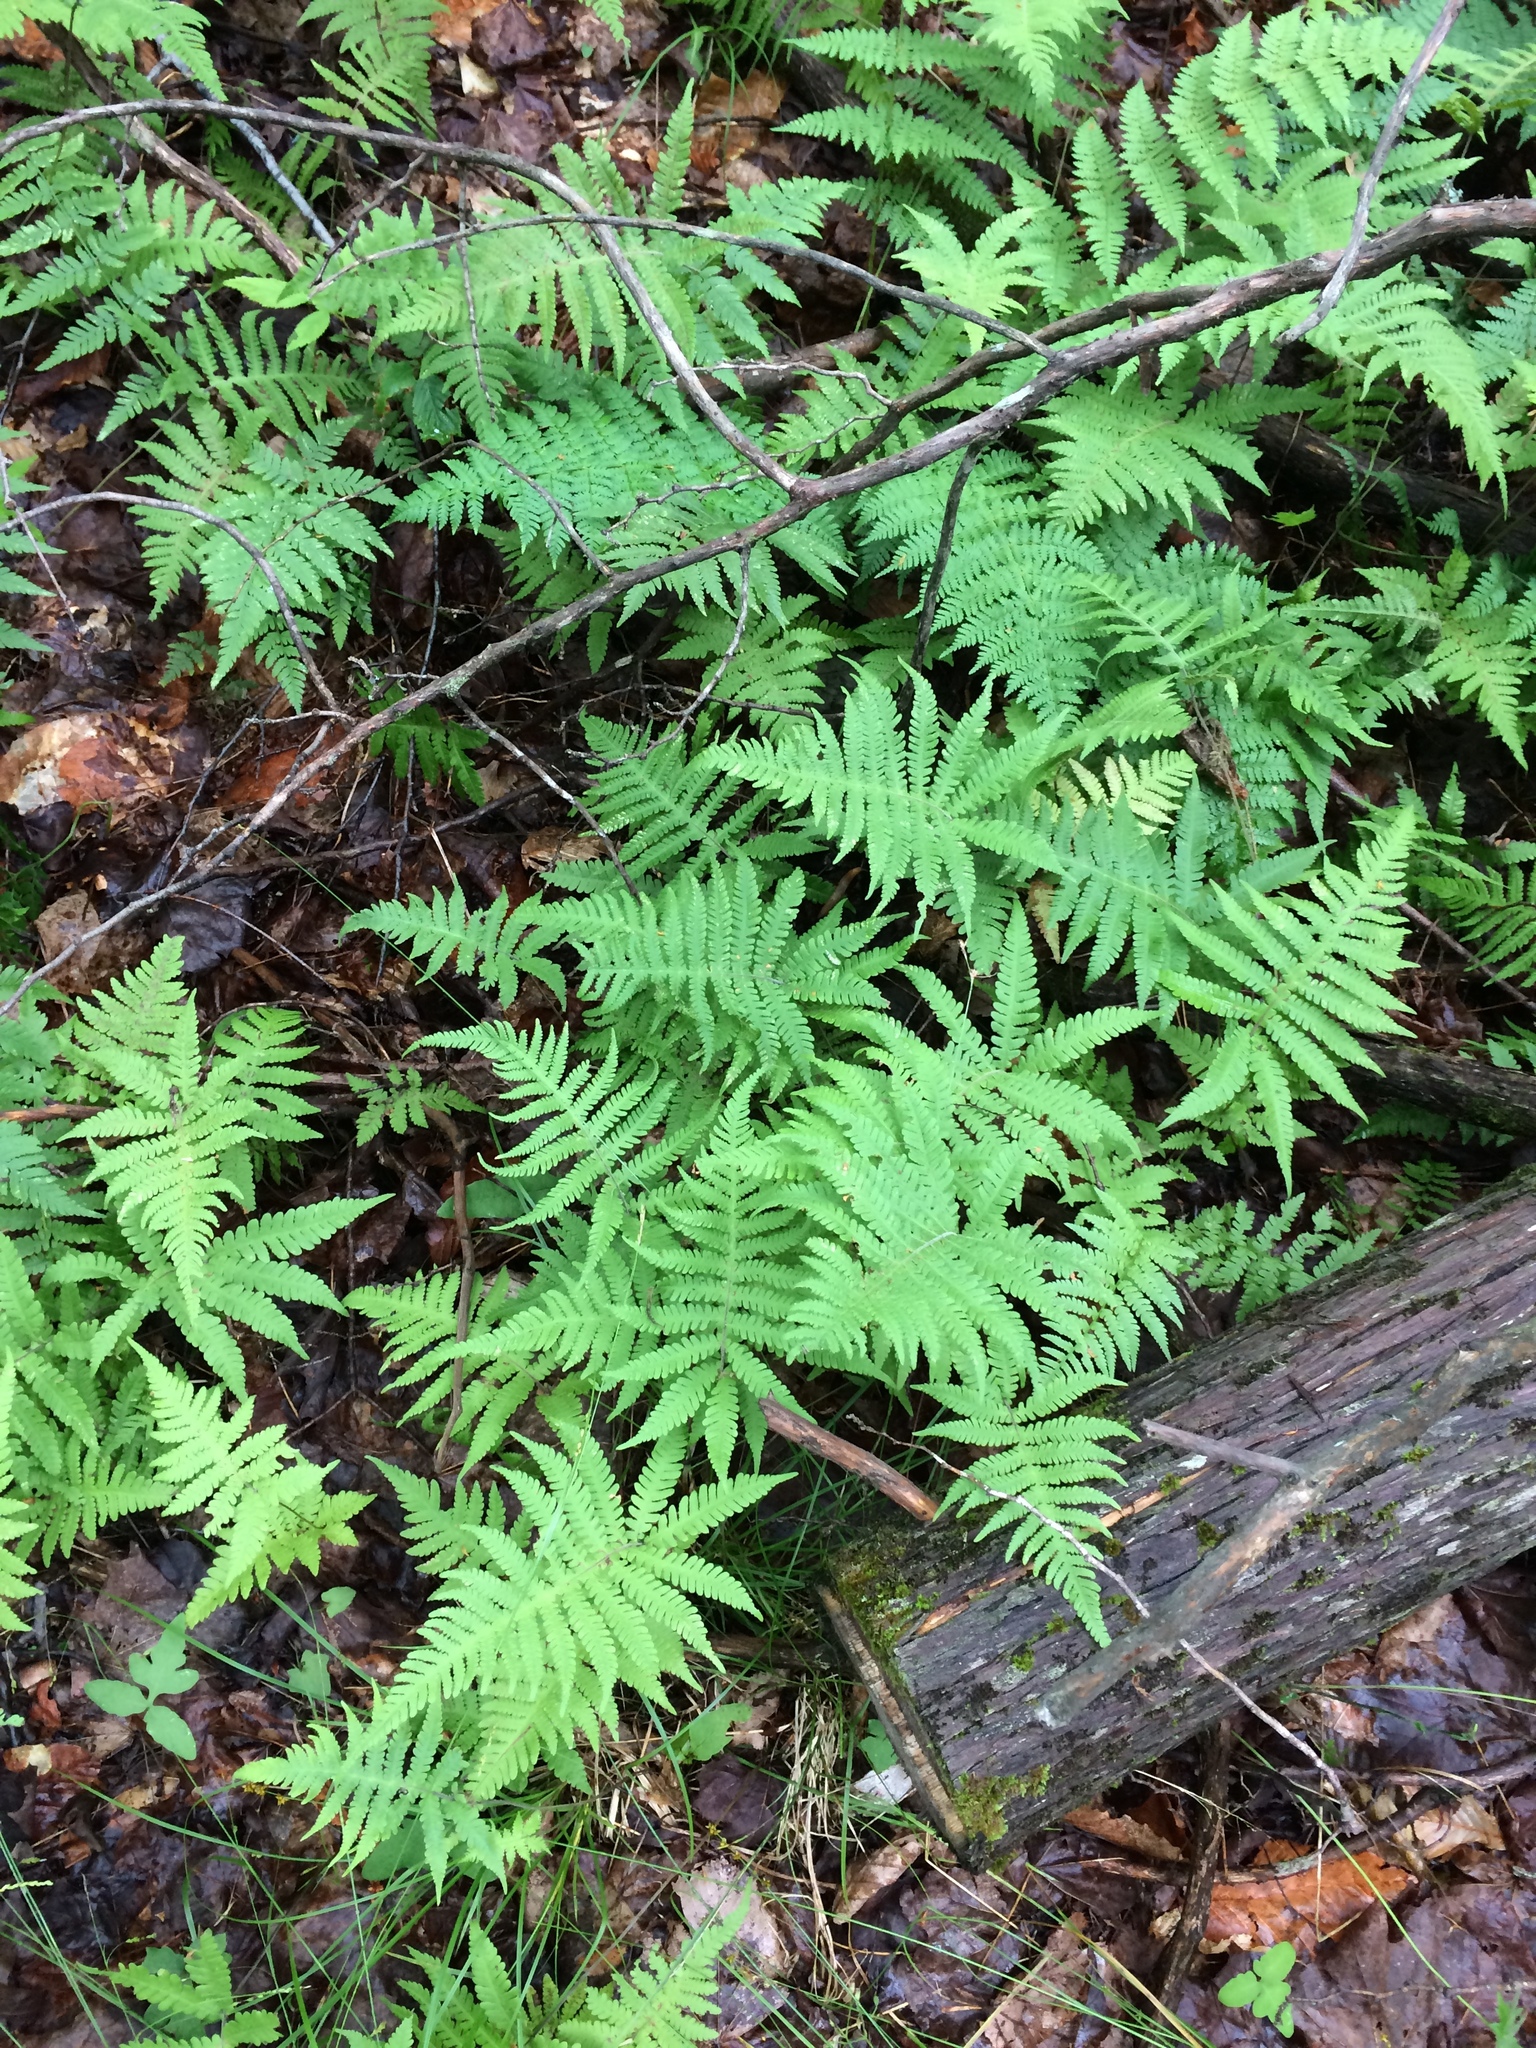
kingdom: Plantae
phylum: Tracheophyta
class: Polypodiopsida
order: Polypodiales
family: Thelypteridaceae
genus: Phegopteris
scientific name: Phegopteris connectilis
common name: Beech fern
